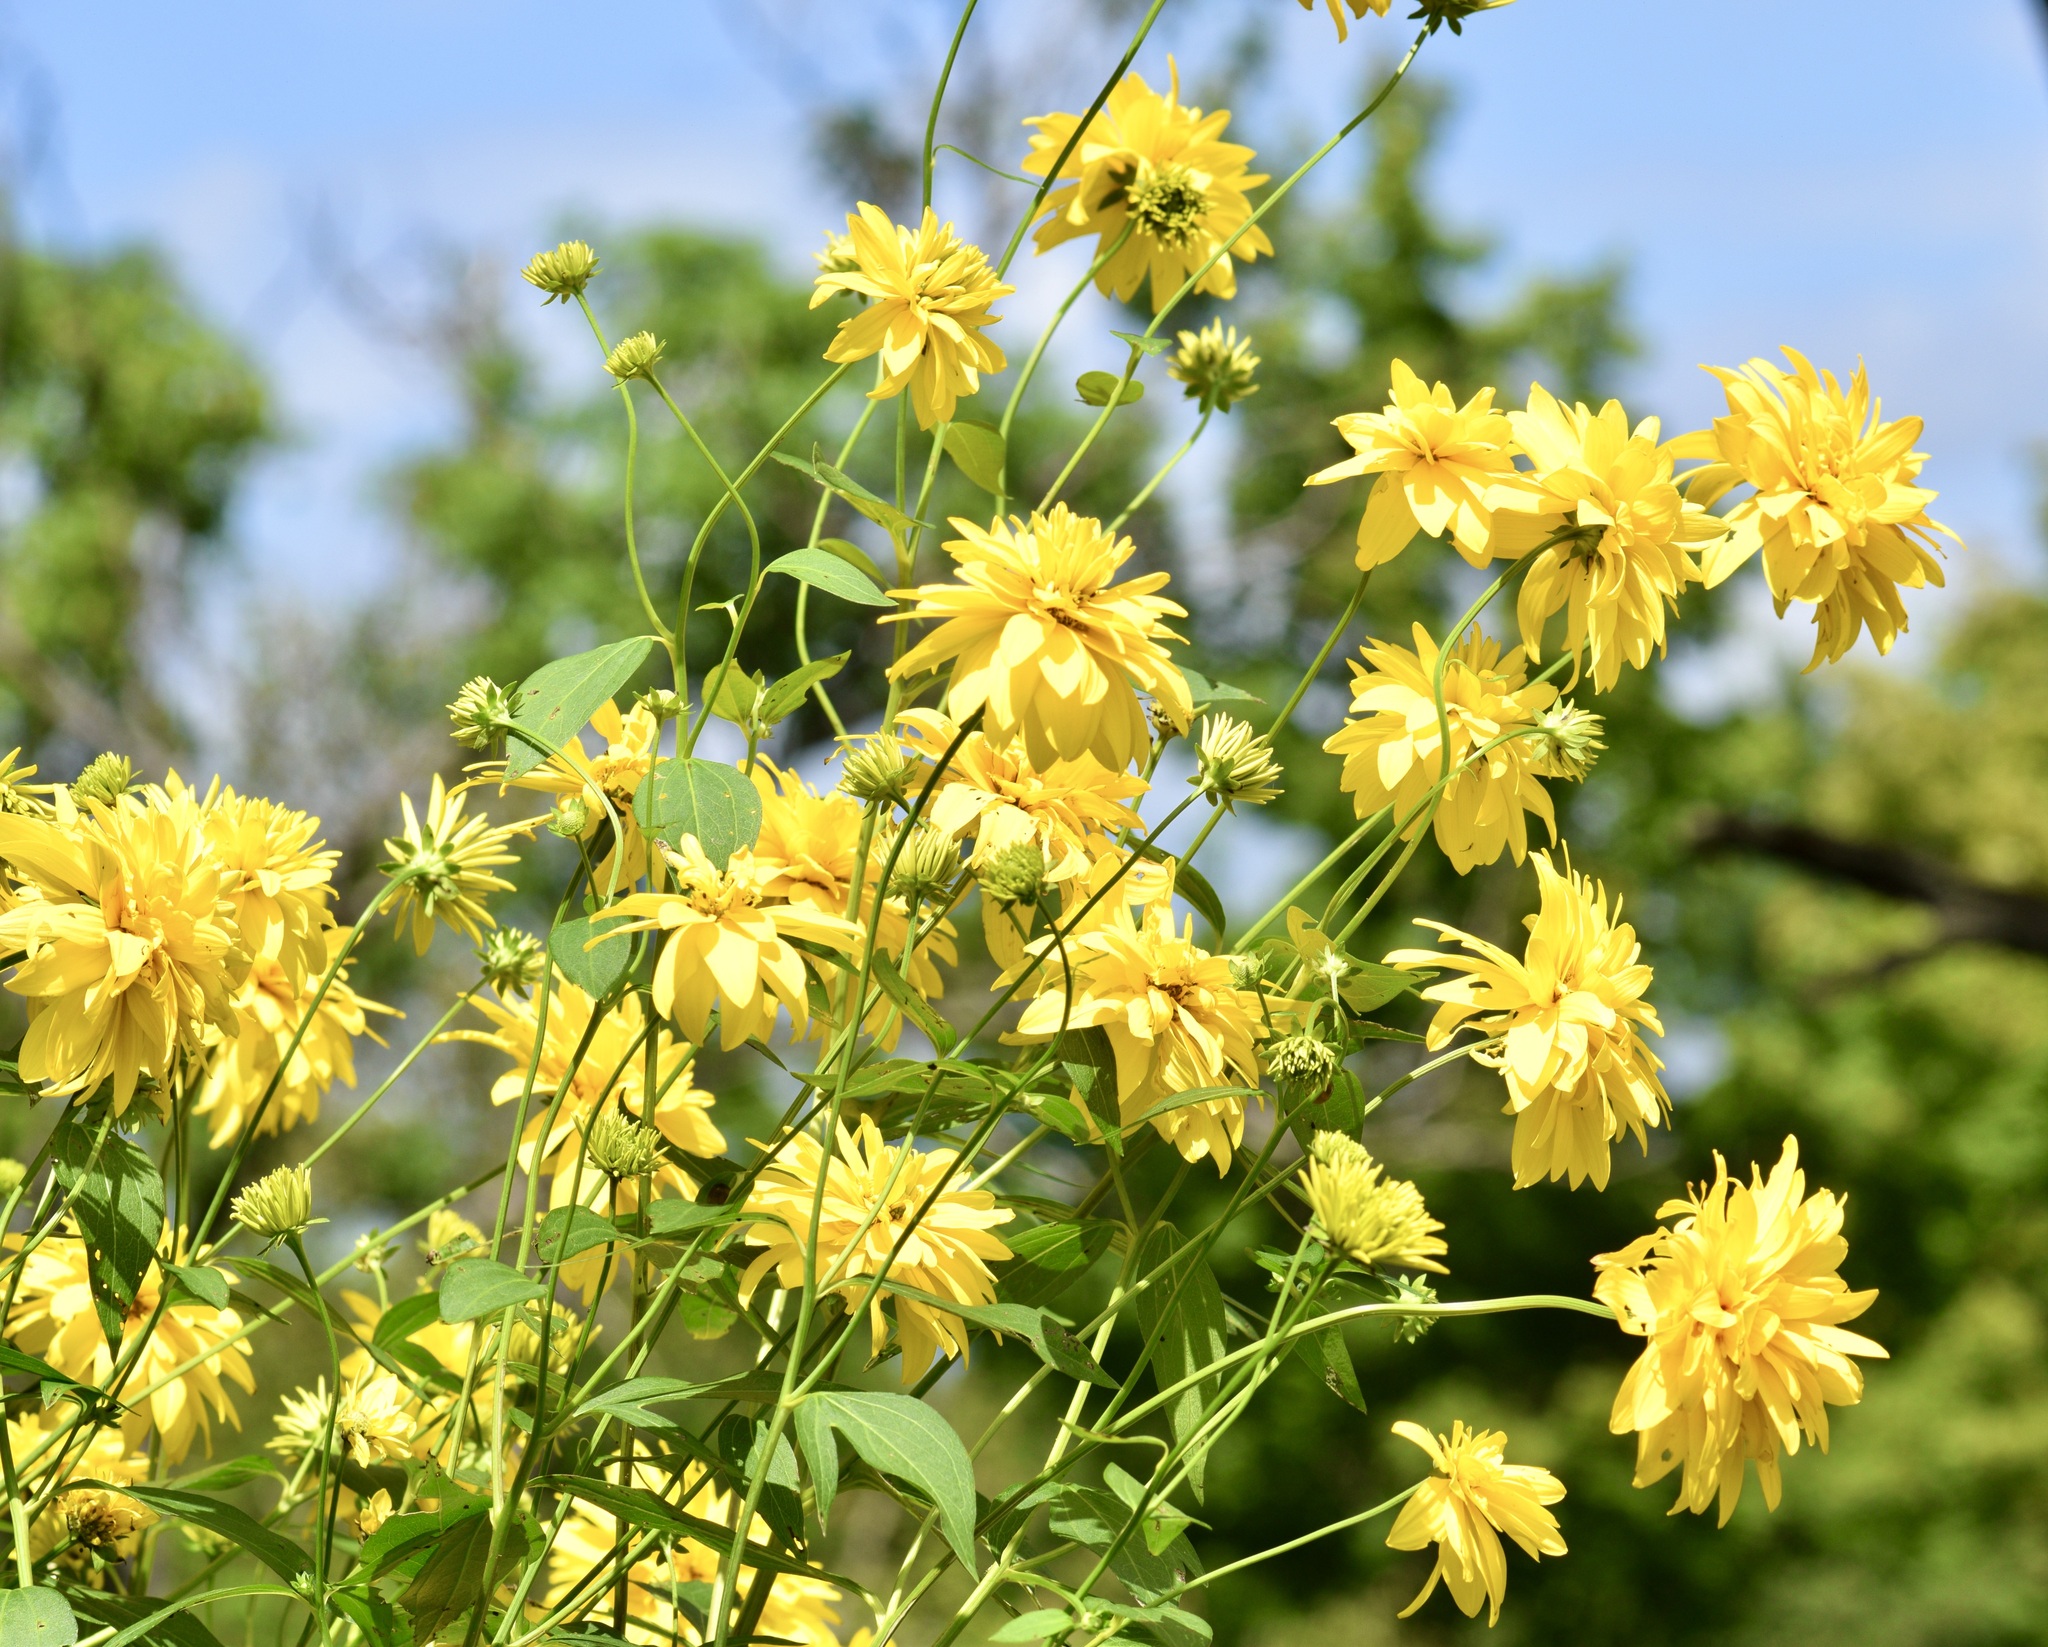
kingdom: Plantae
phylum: Tracheophyta
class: Magnoliopsida
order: Asterales
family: Asteraceae
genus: Rudbeckia
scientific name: Rudbeckia laciniata
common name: Coneflower
